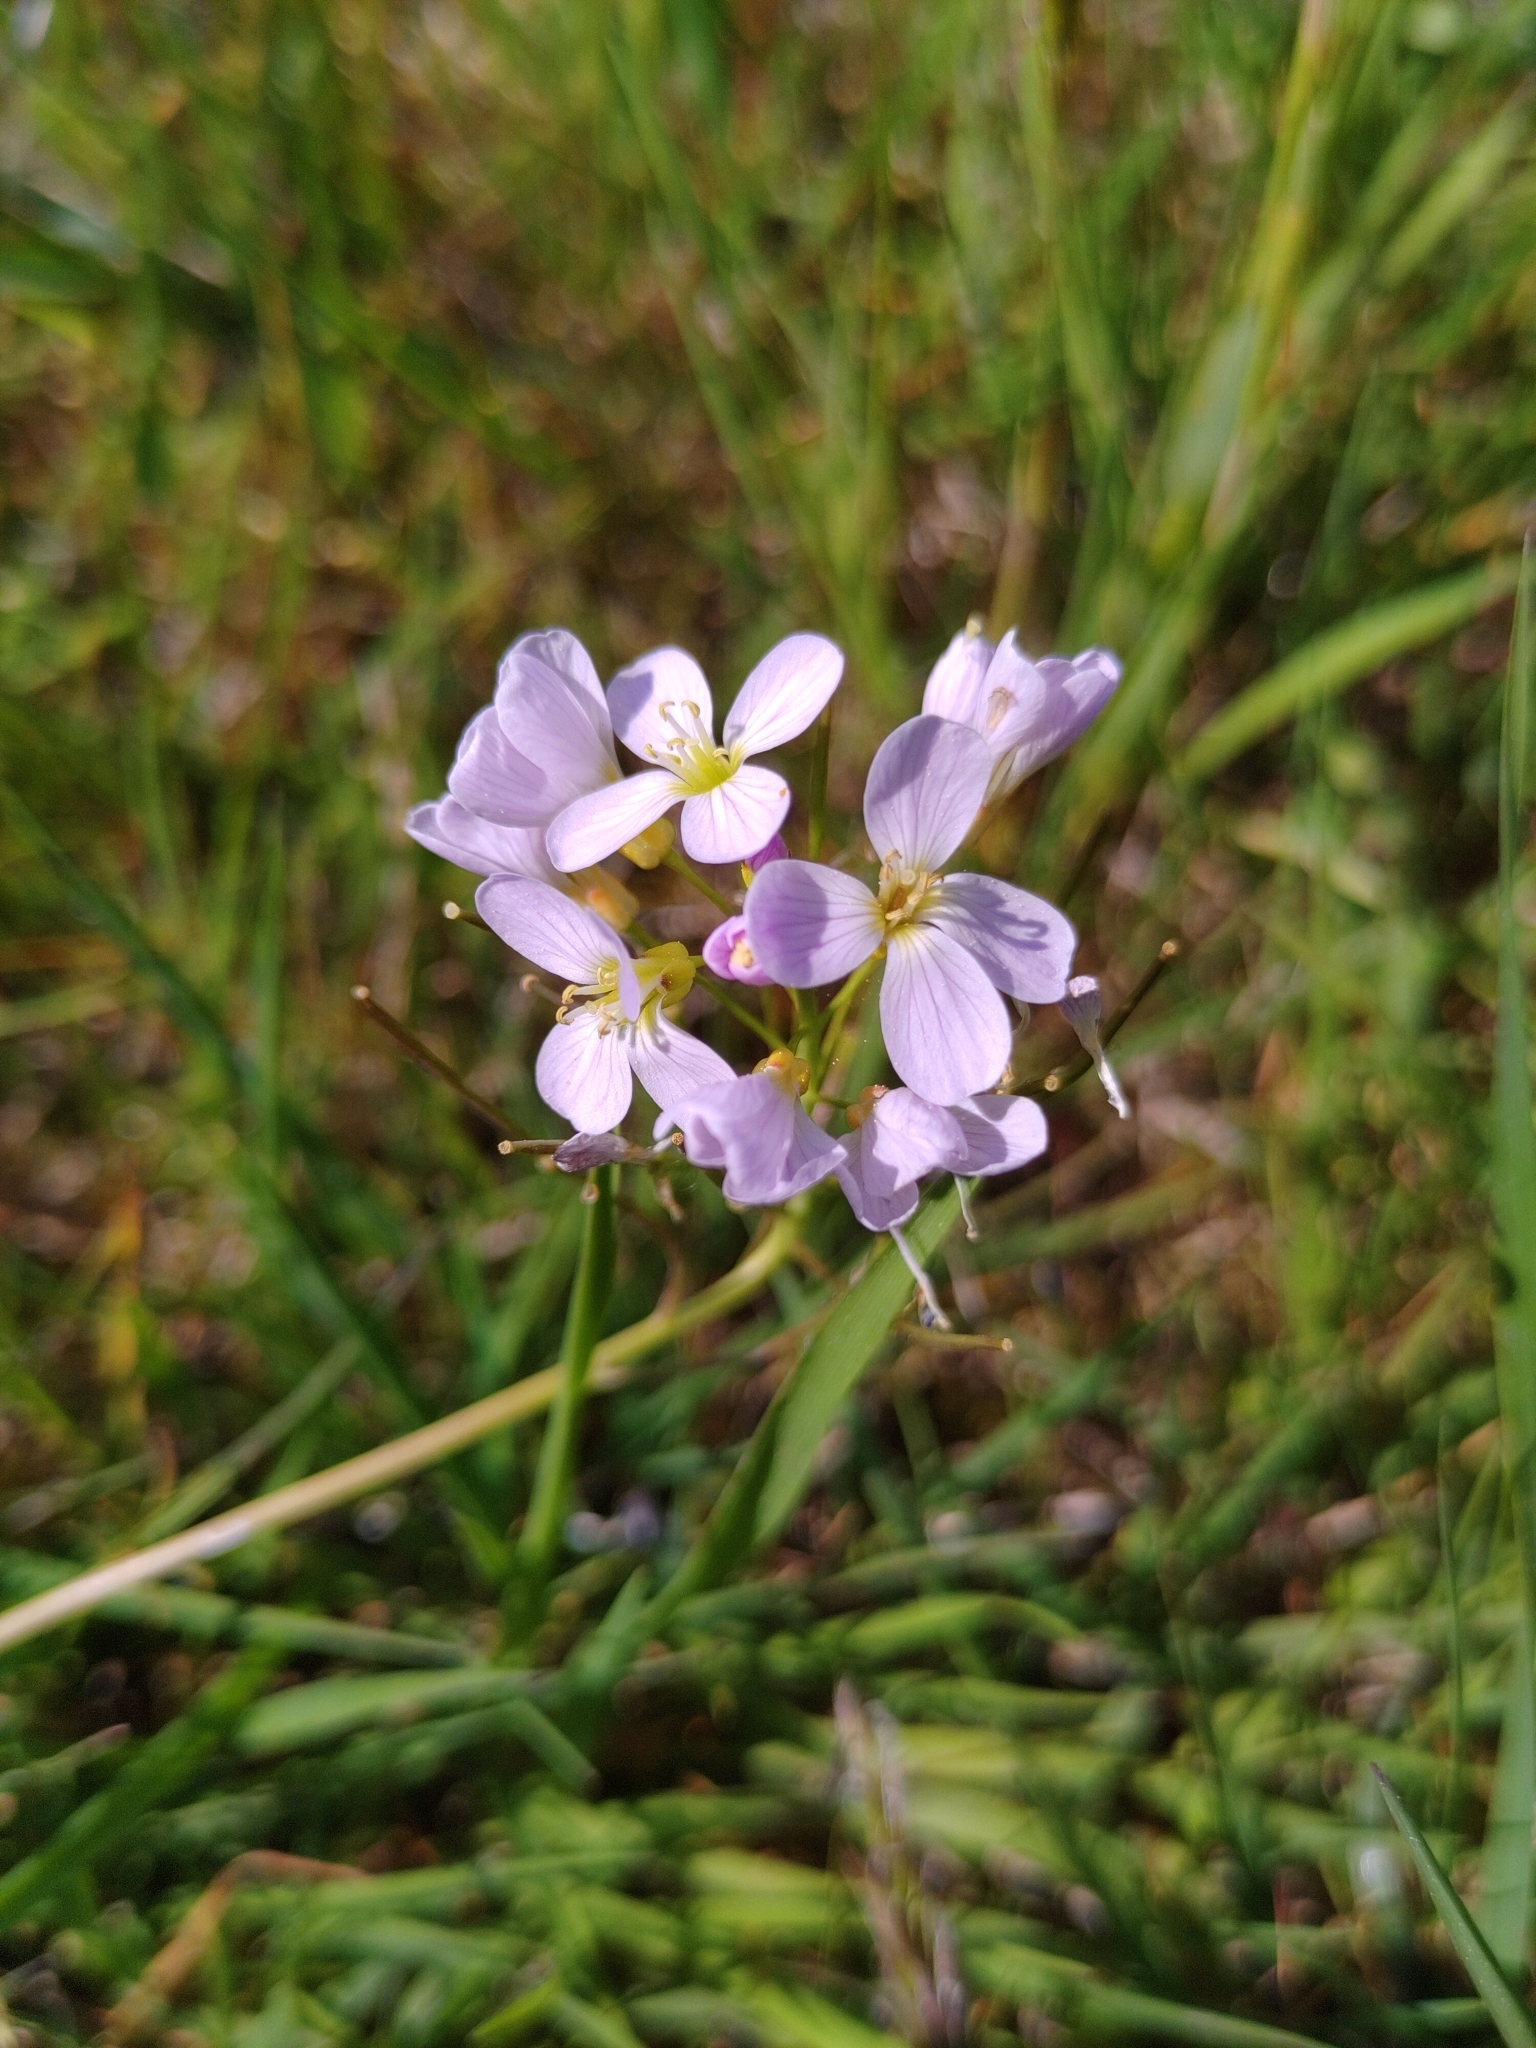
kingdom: Plantae
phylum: Tracheophyta
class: Magnoliopsida
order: Brassicales
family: Brassicaceae
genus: Cardamine
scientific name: Cardamine pratensis
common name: Cuckoo flower
